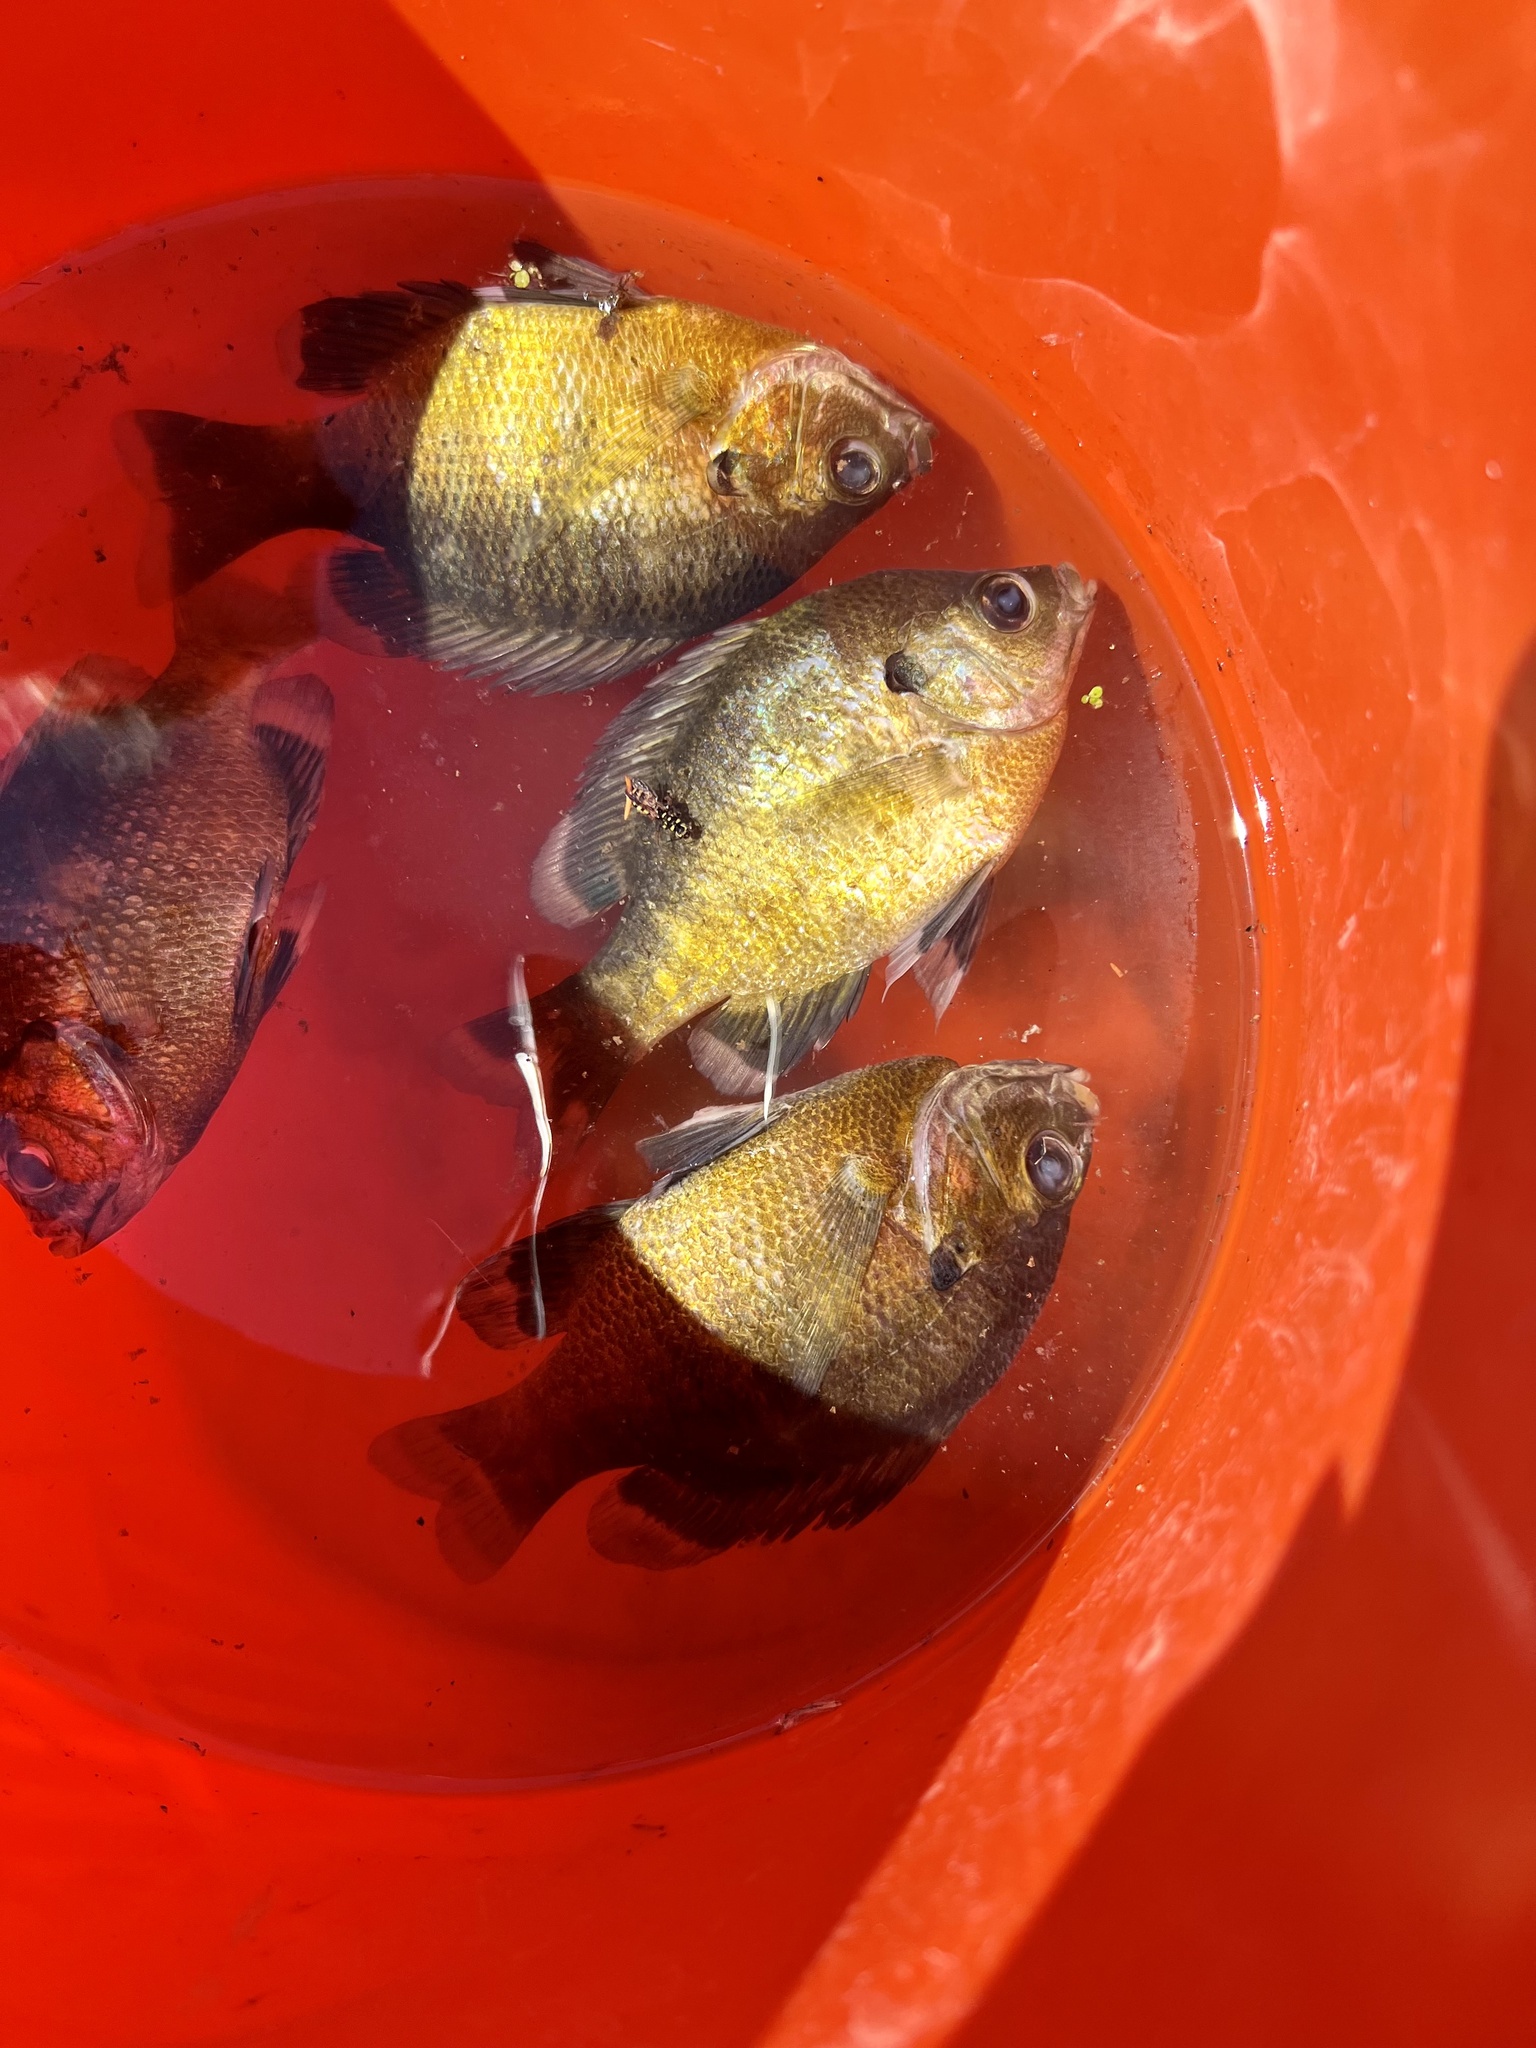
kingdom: Animalia
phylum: Chordata
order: Perciformes
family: Centrarchidae
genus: Lepomis
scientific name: Lepomis macrochirus
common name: Bluegill
